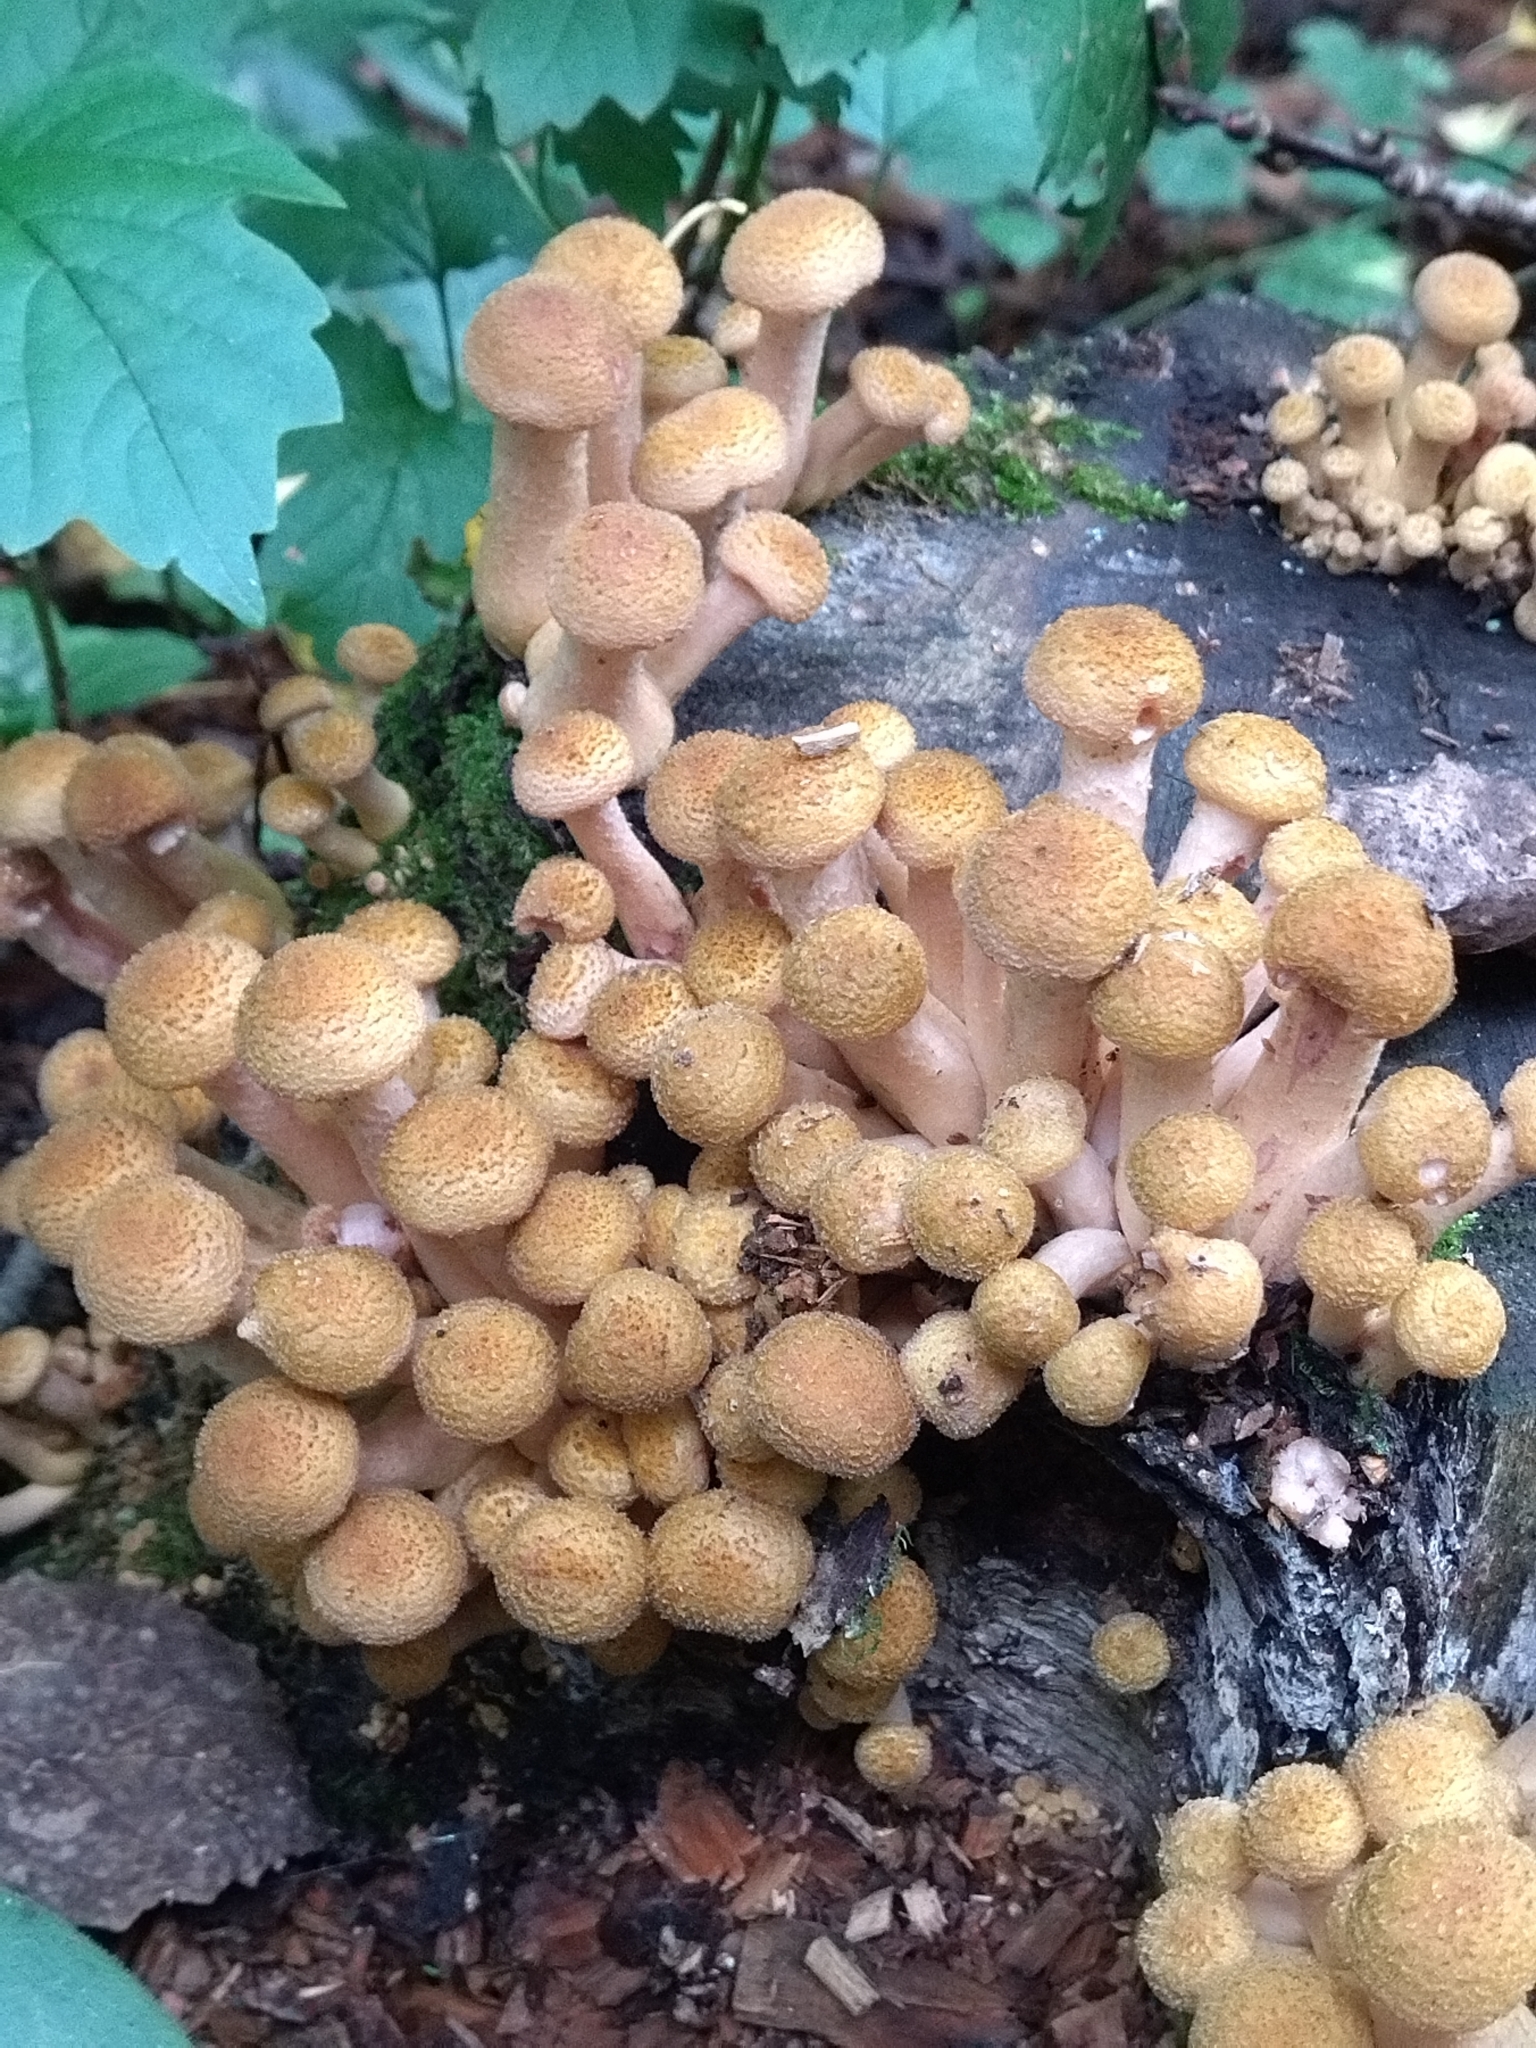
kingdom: Fungi
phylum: Basidiomycota
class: Agaricomycetes
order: Agaricales
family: Physalacriaceae
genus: Armillaria
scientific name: Armillaria borealis
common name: Northern honey fungus
